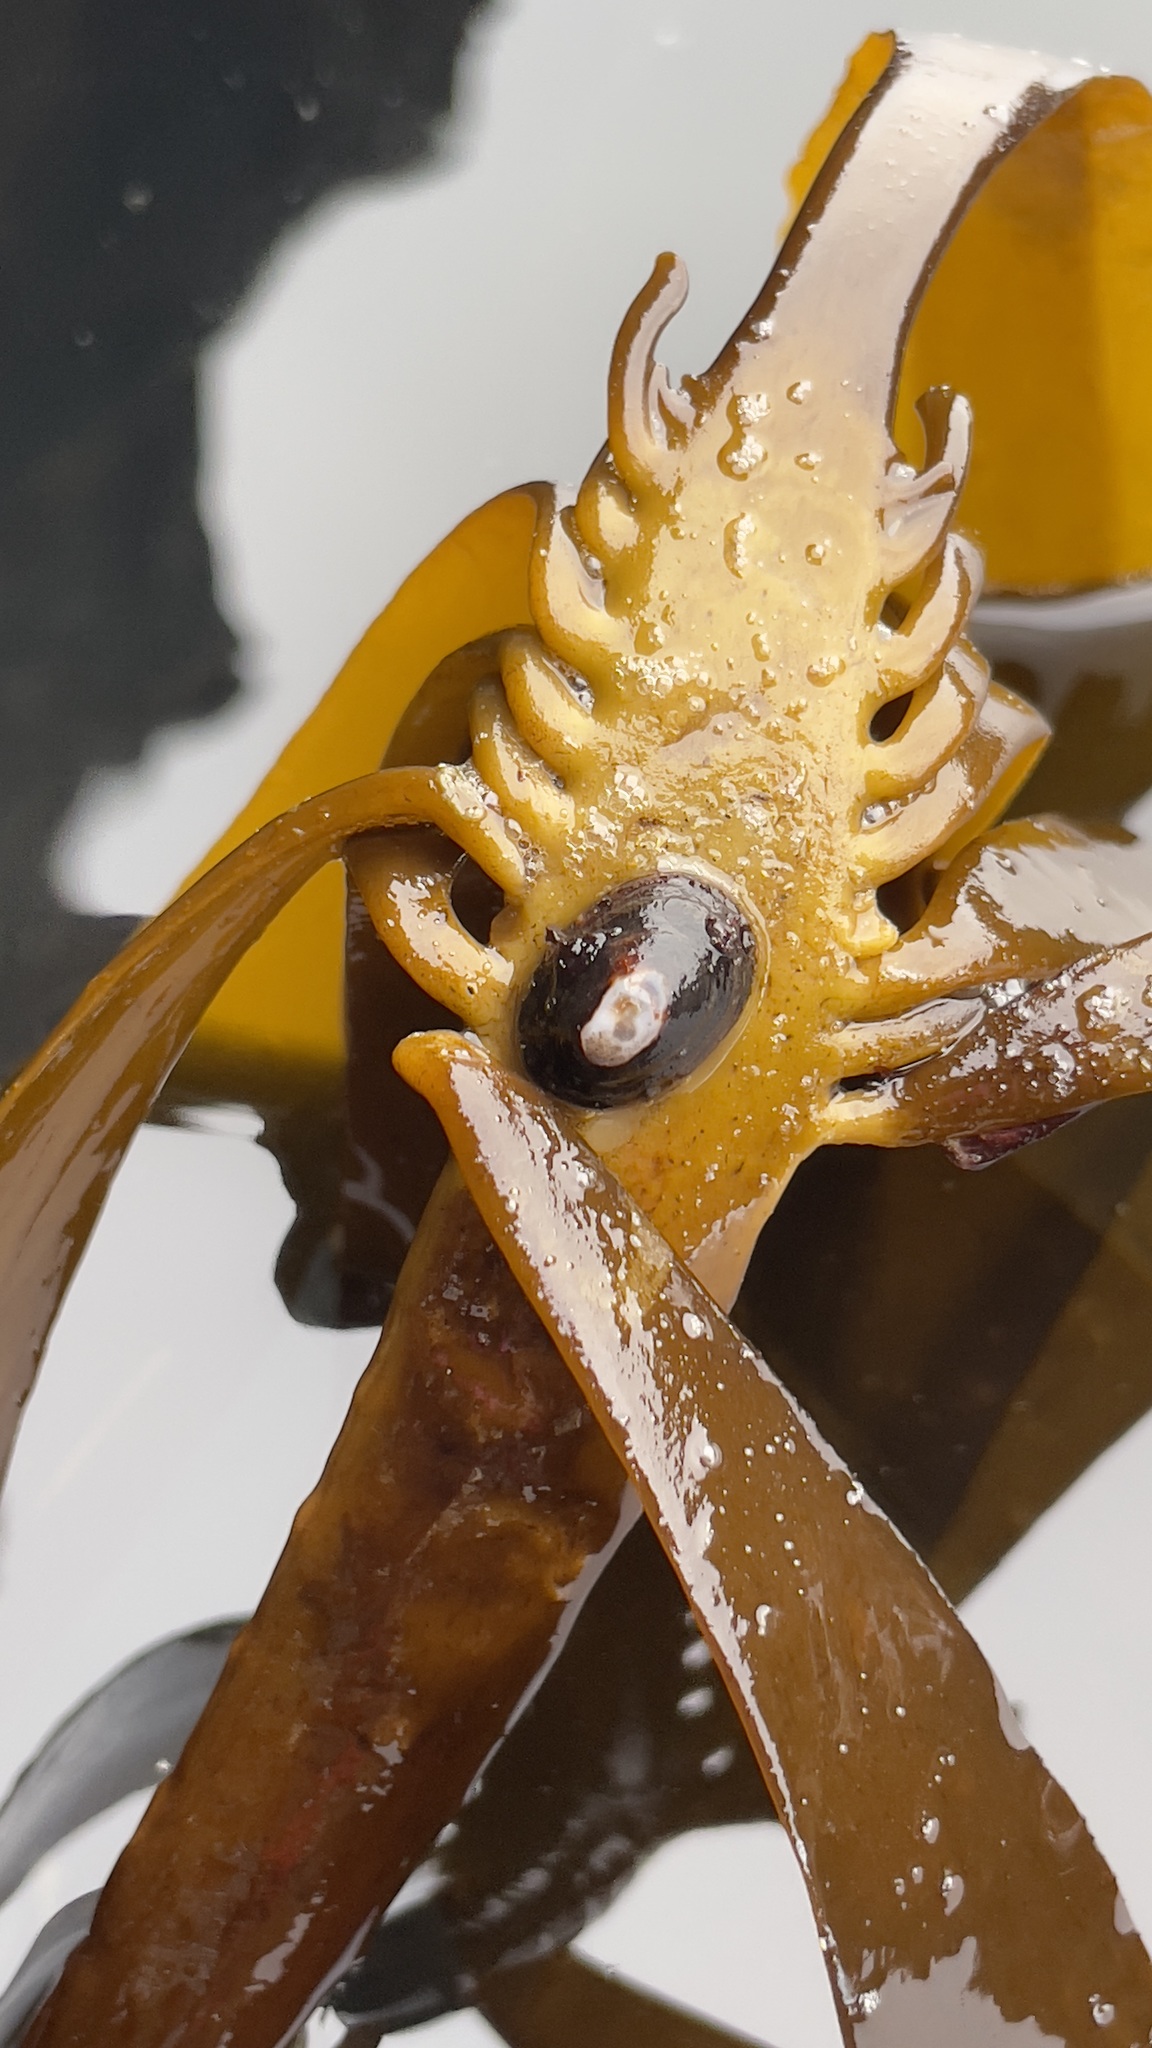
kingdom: Animalia
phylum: Mollusca
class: Gastropoda
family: Lottiidae
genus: Discurria
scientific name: Discurria insessa
